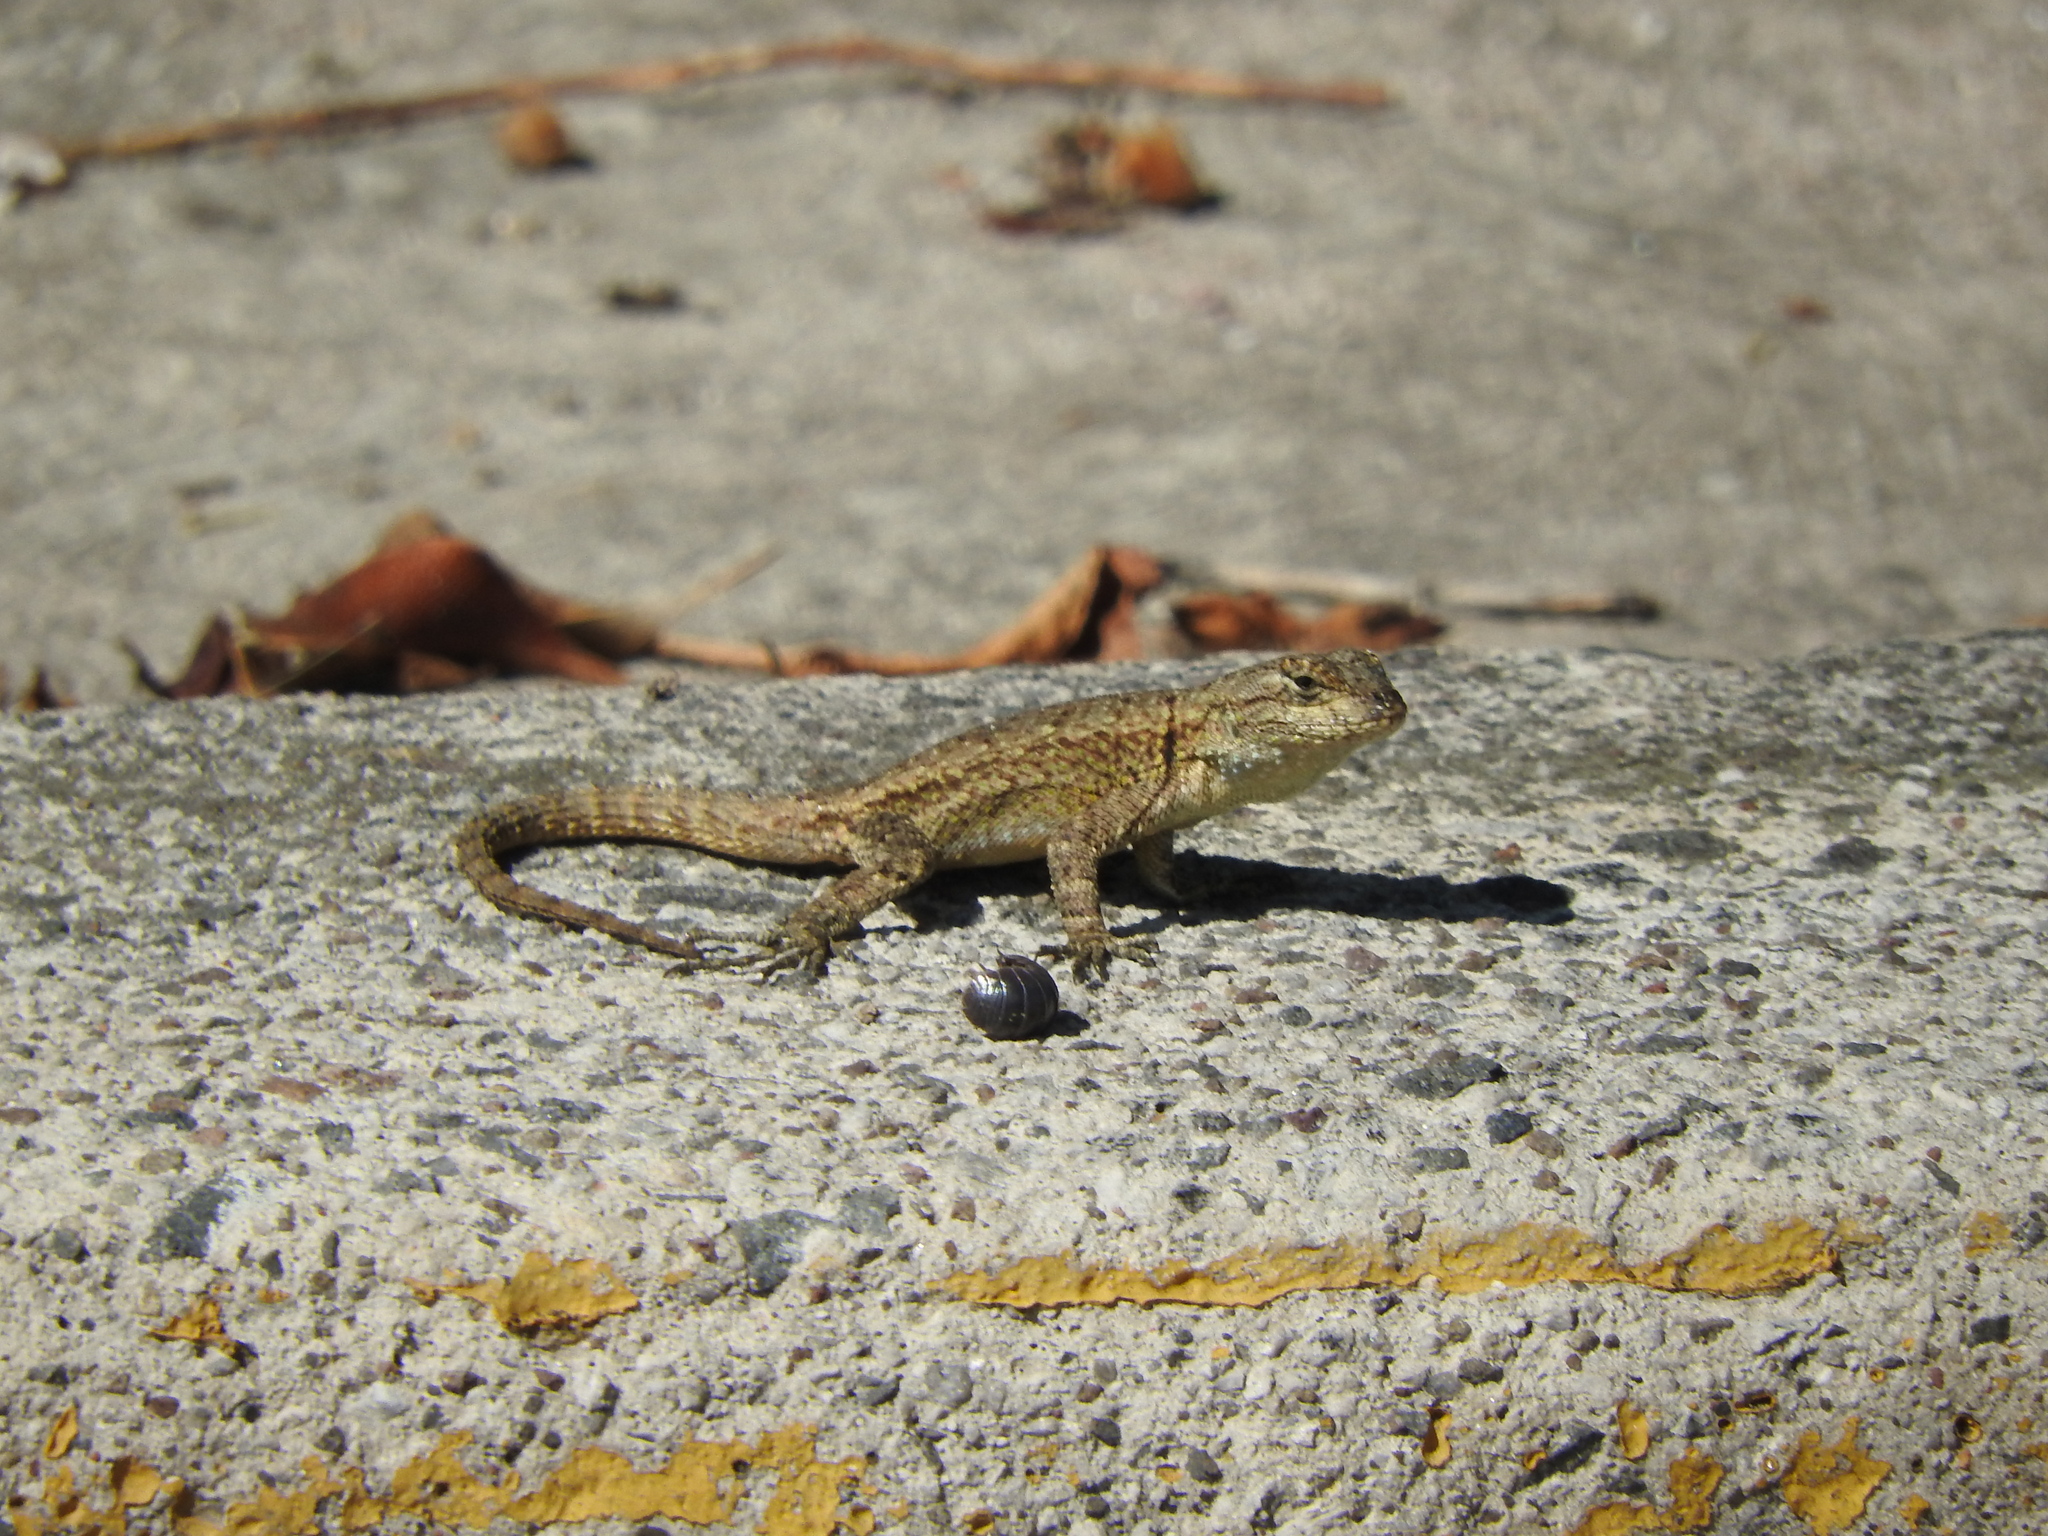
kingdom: Animalia
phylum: Chordata
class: Squamata
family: Phrynosomatidae
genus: Sceloporus
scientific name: Sceloporus grammicus
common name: Mesquite lizard
